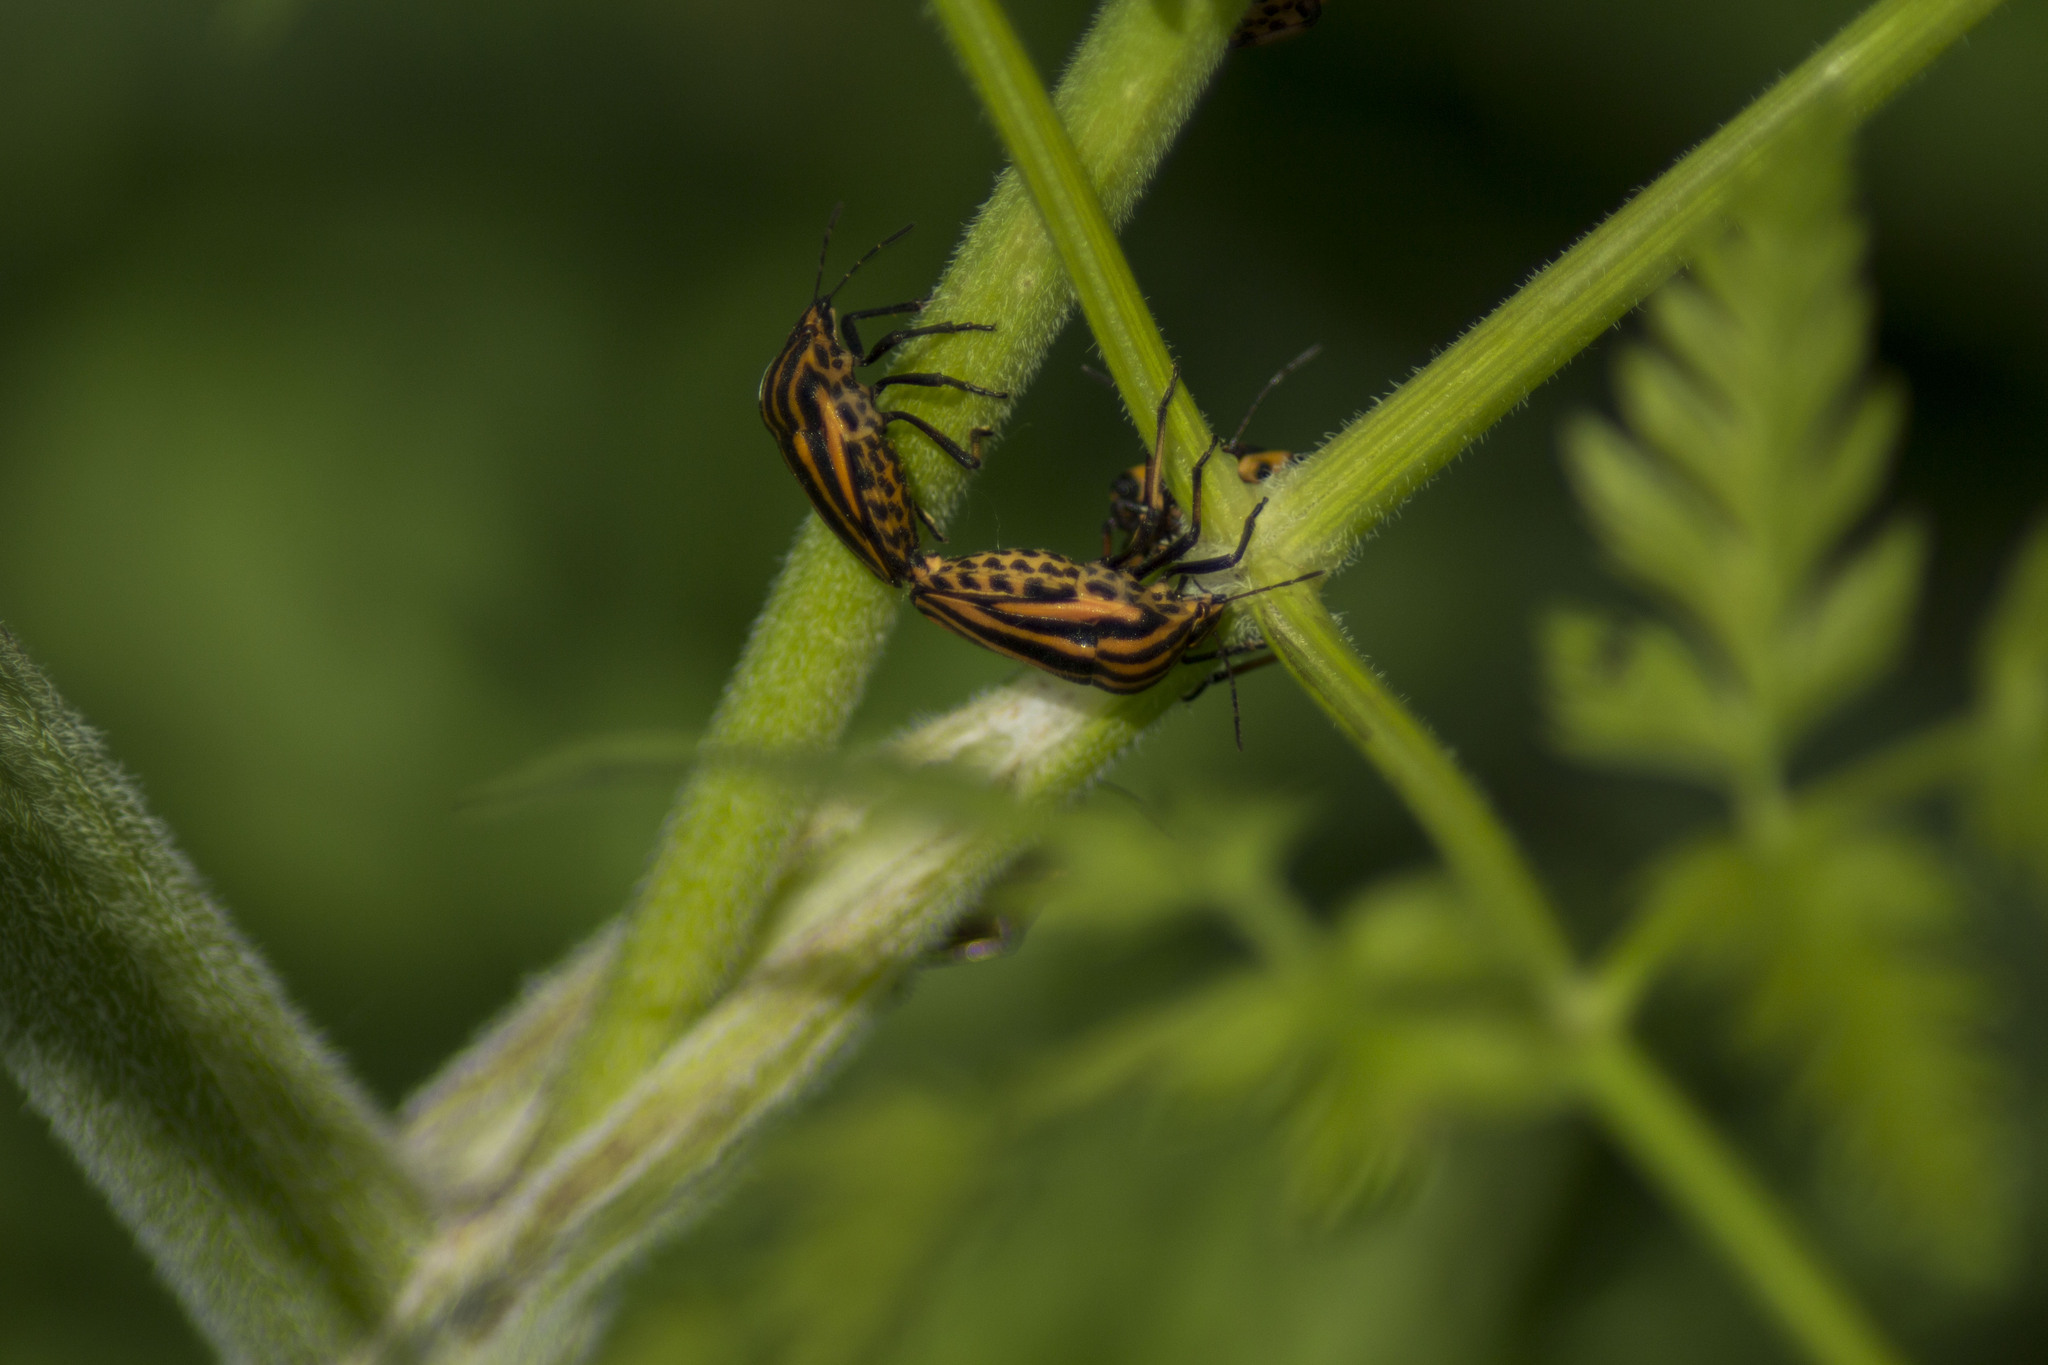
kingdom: Animalia
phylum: Arthropoda
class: Insecta
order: Hemiptera
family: Pentatomidae
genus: Graphosoma
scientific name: Graphosoma italicum
